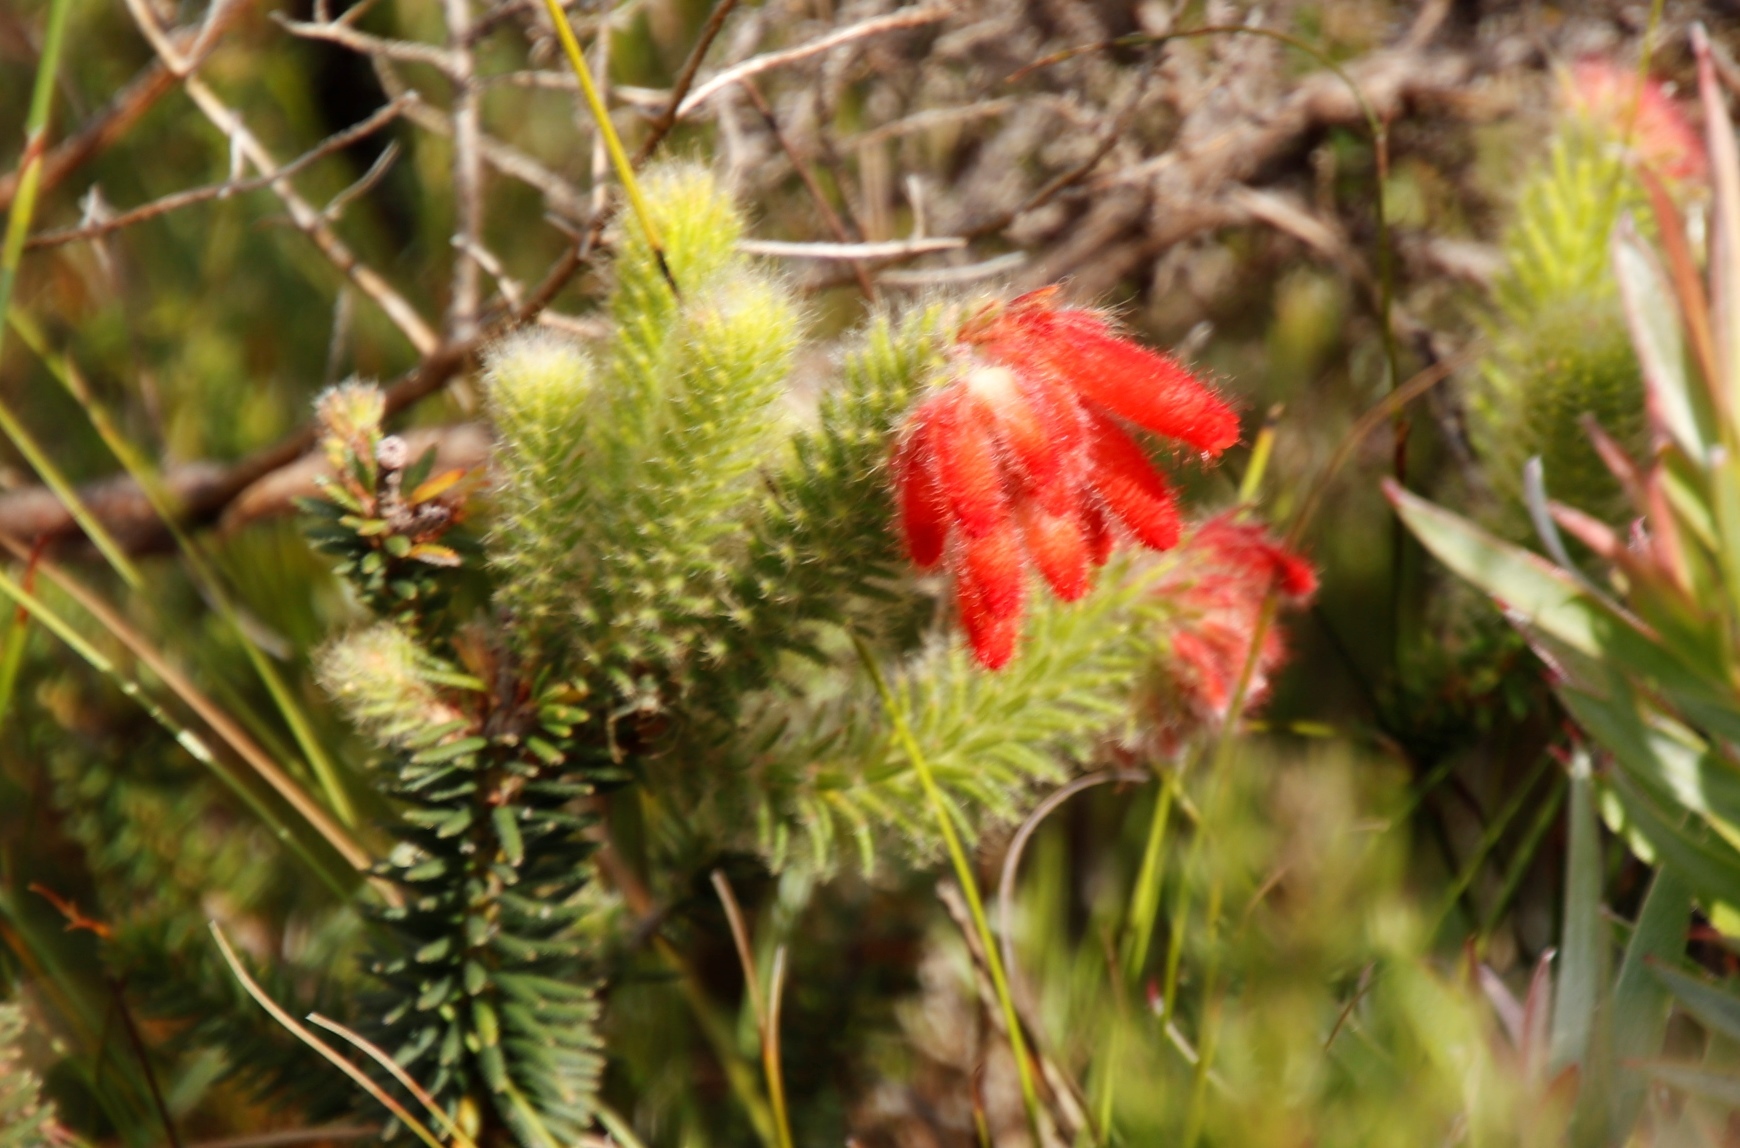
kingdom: Plantae
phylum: Tracheophyta
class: Magnoliopsida
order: Ericales
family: Ericaceae
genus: Erica
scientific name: Erica cerinthoides
